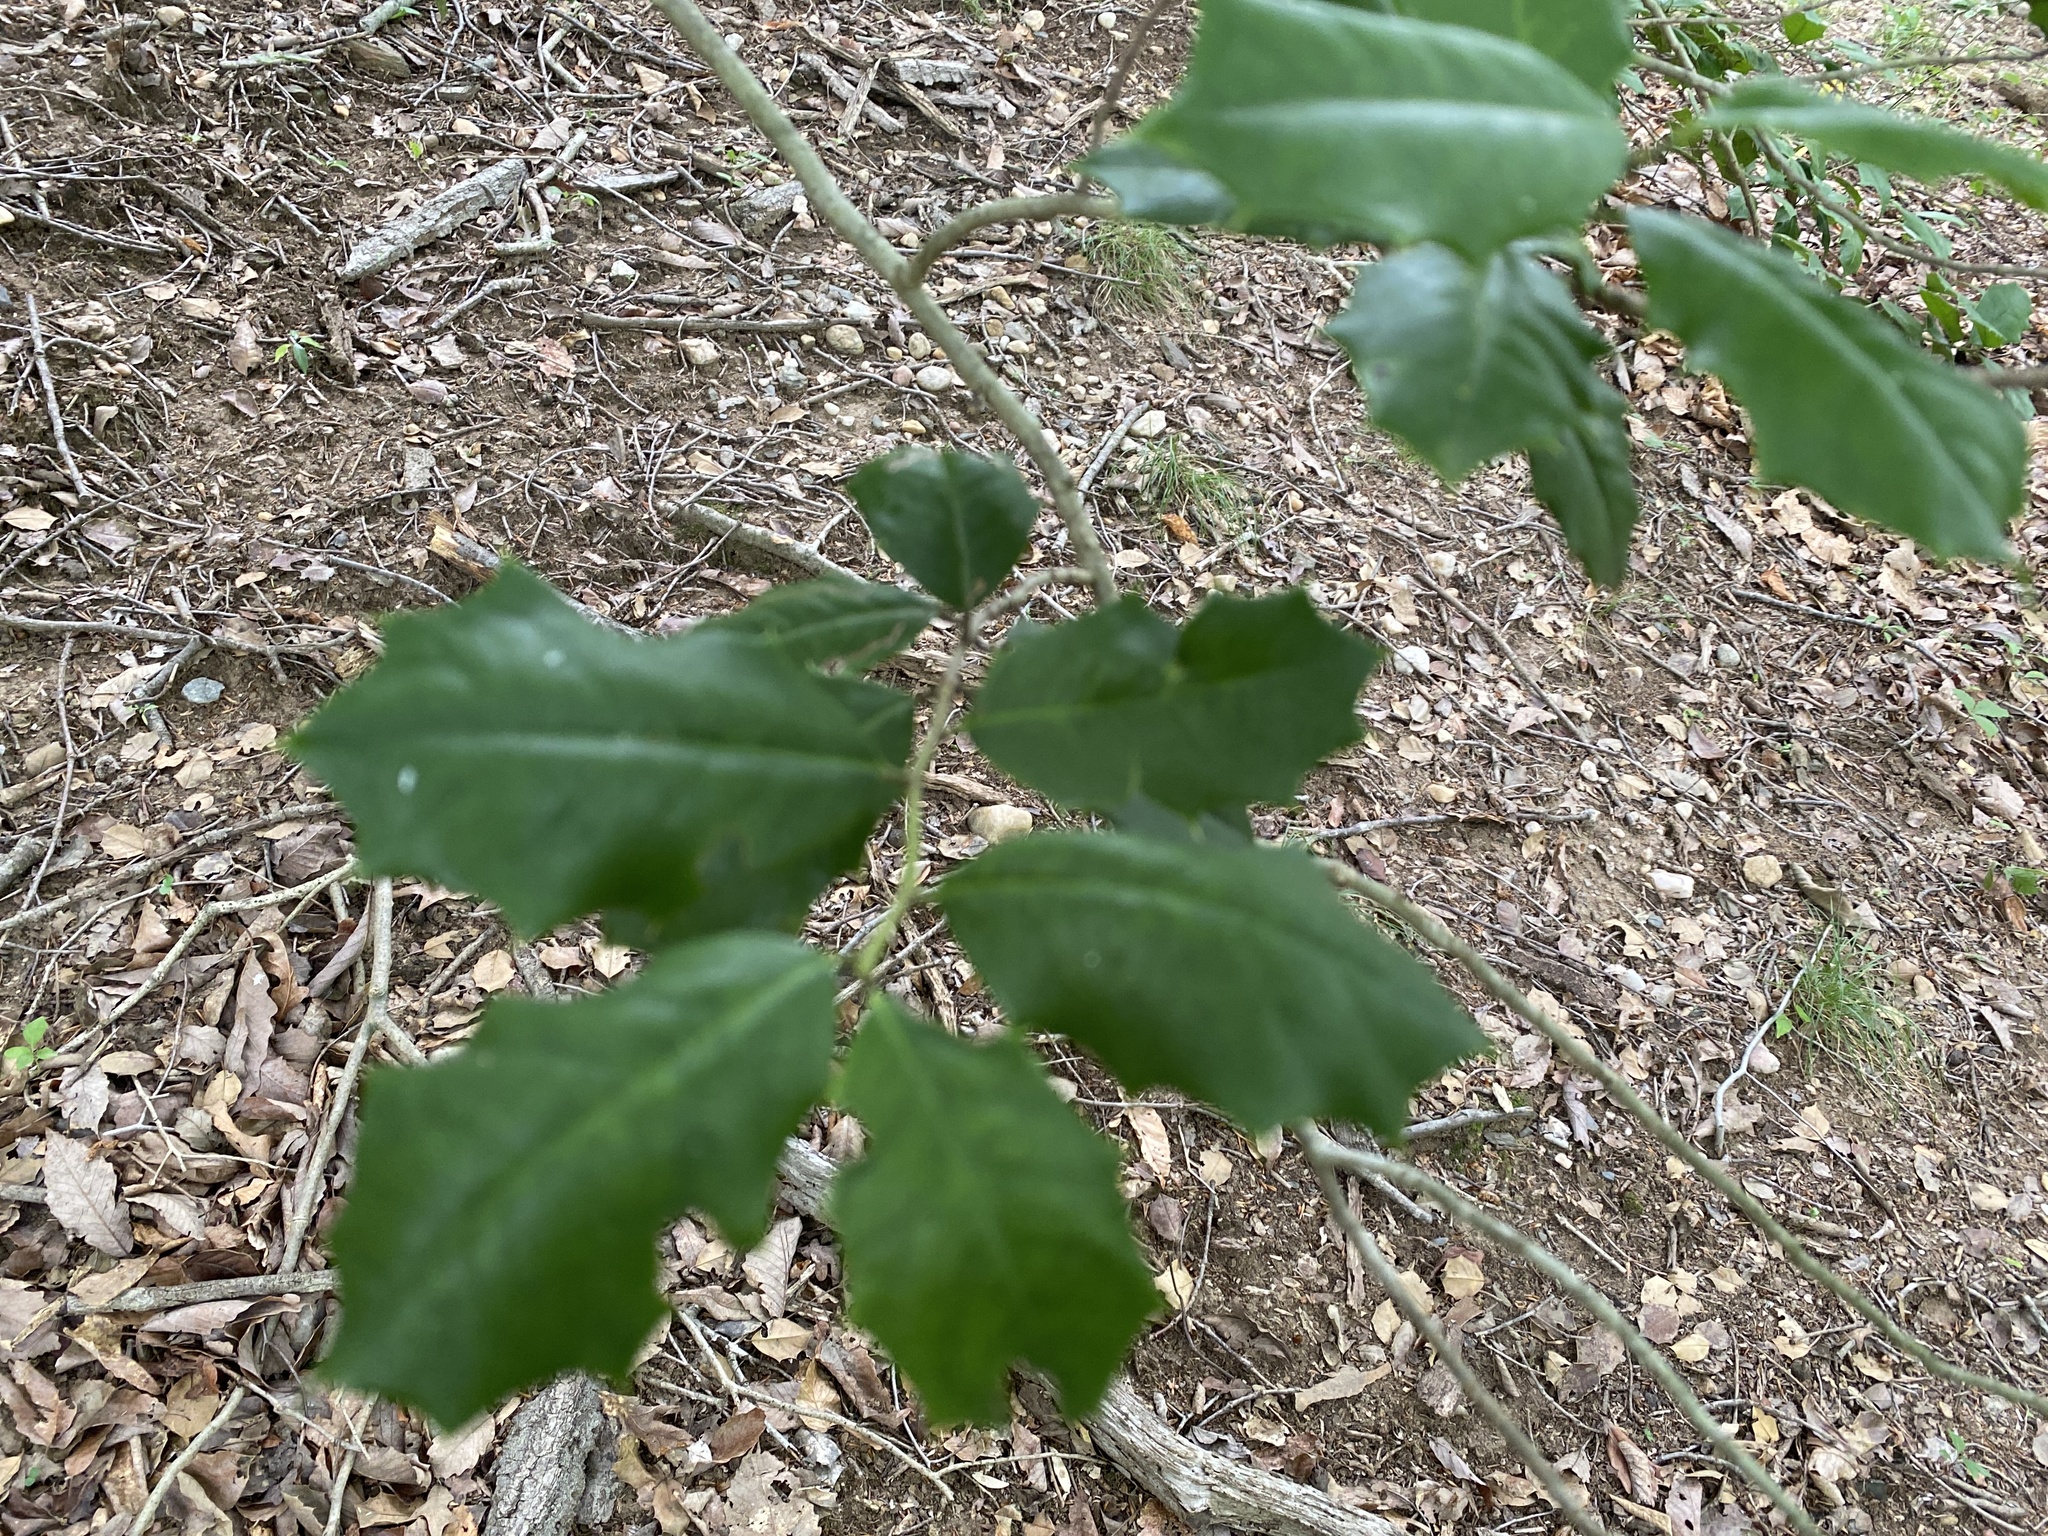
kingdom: Plantae
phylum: Tracheophyta
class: Magnoliopsida
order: Aquifoliales
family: Aquifoliaceae
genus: Ilex
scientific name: Ilex opaca
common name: American holly
